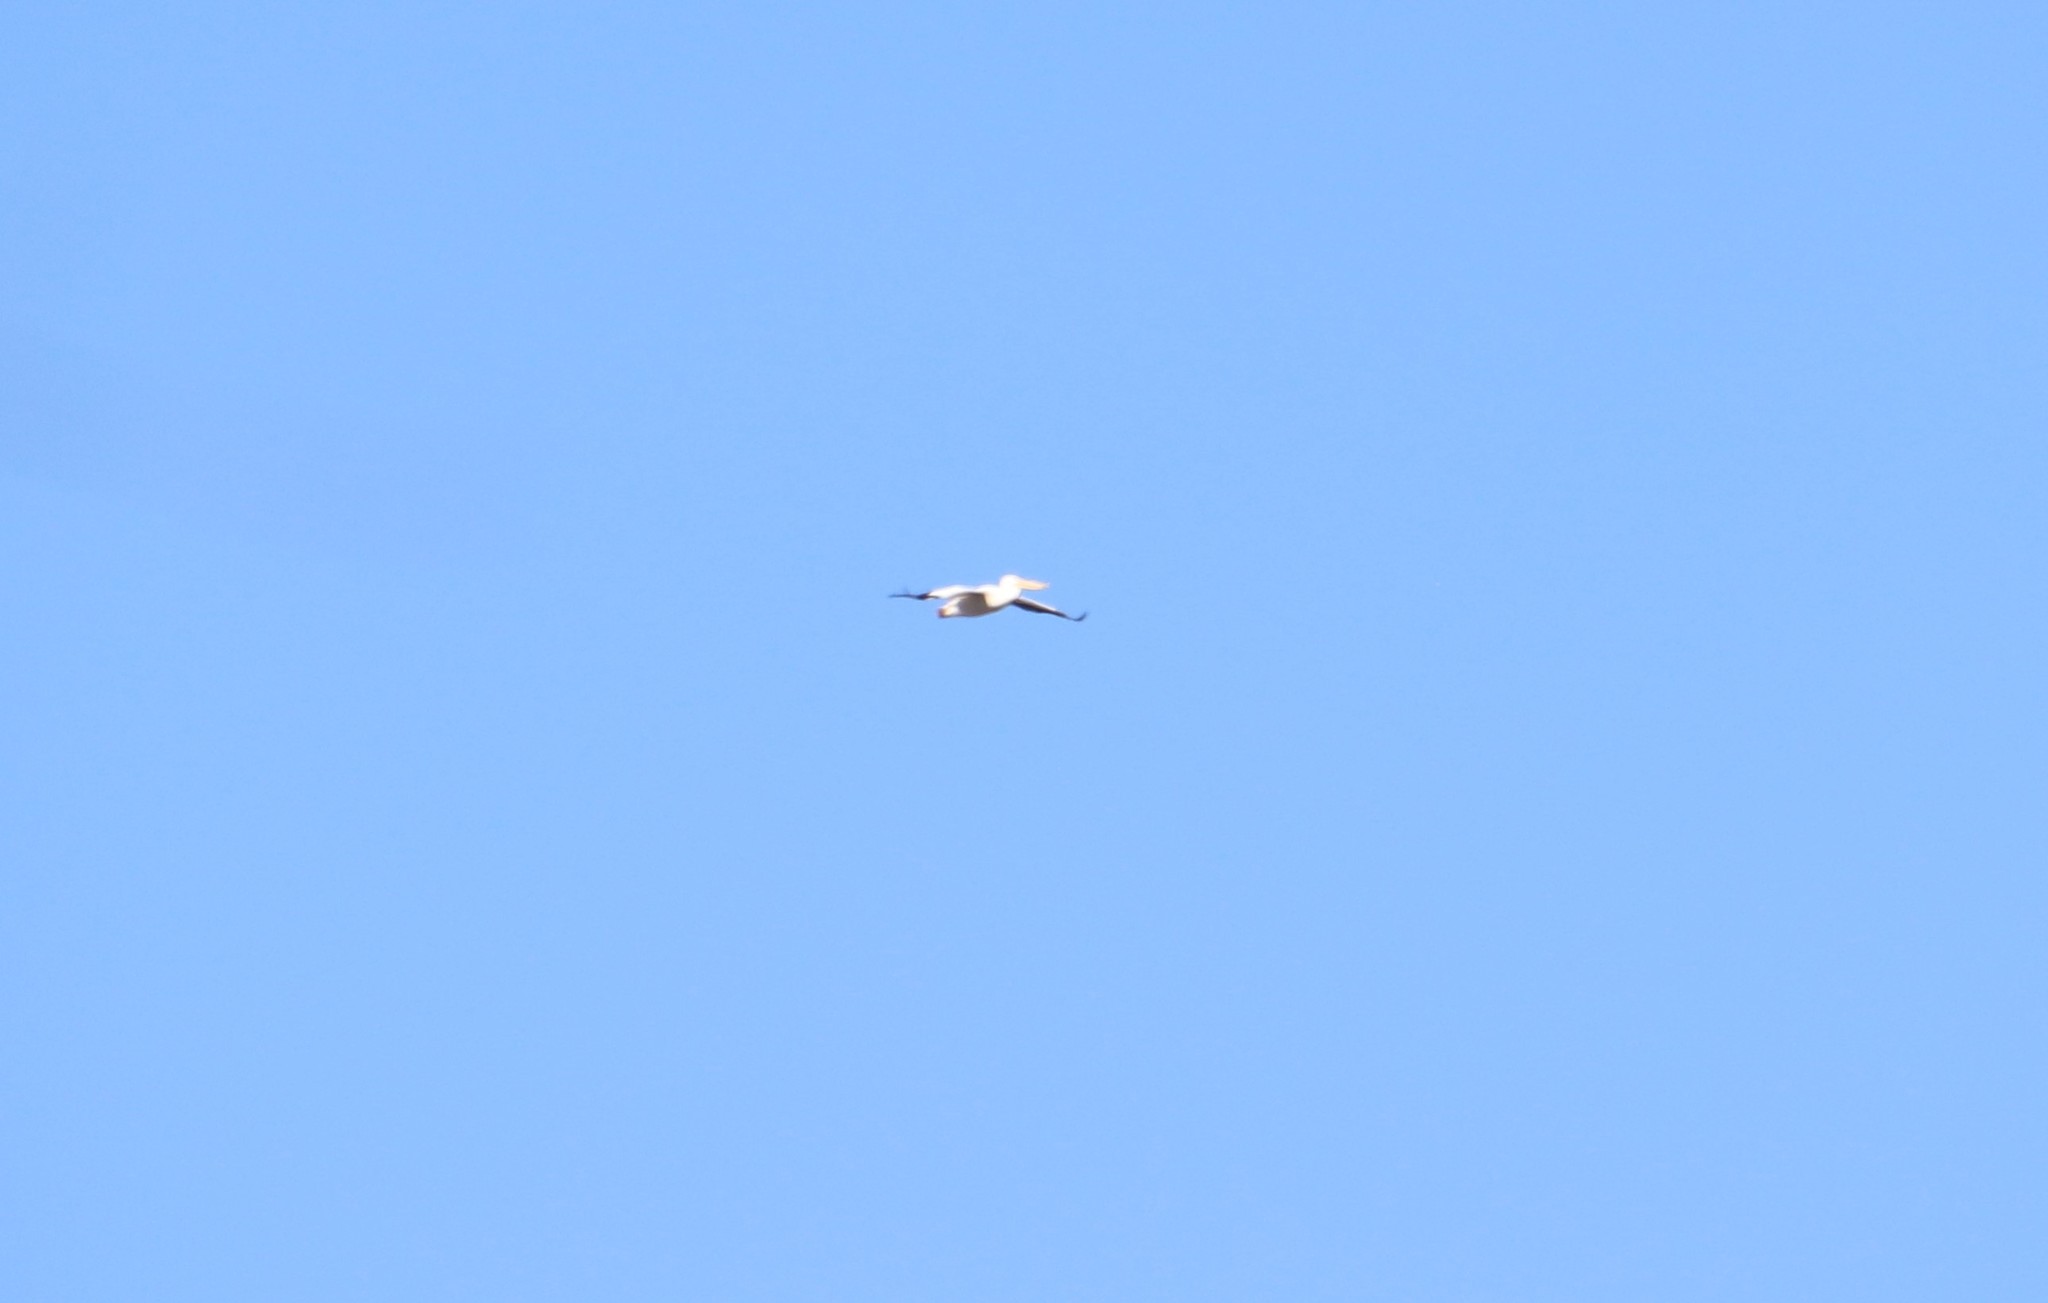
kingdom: Animalia
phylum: Chordata
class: Aves
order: Pelecaniformes
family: Pelecanidae
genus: Pelecanus
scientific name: Pelecanus erythrorhynchos
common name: American white pelican
